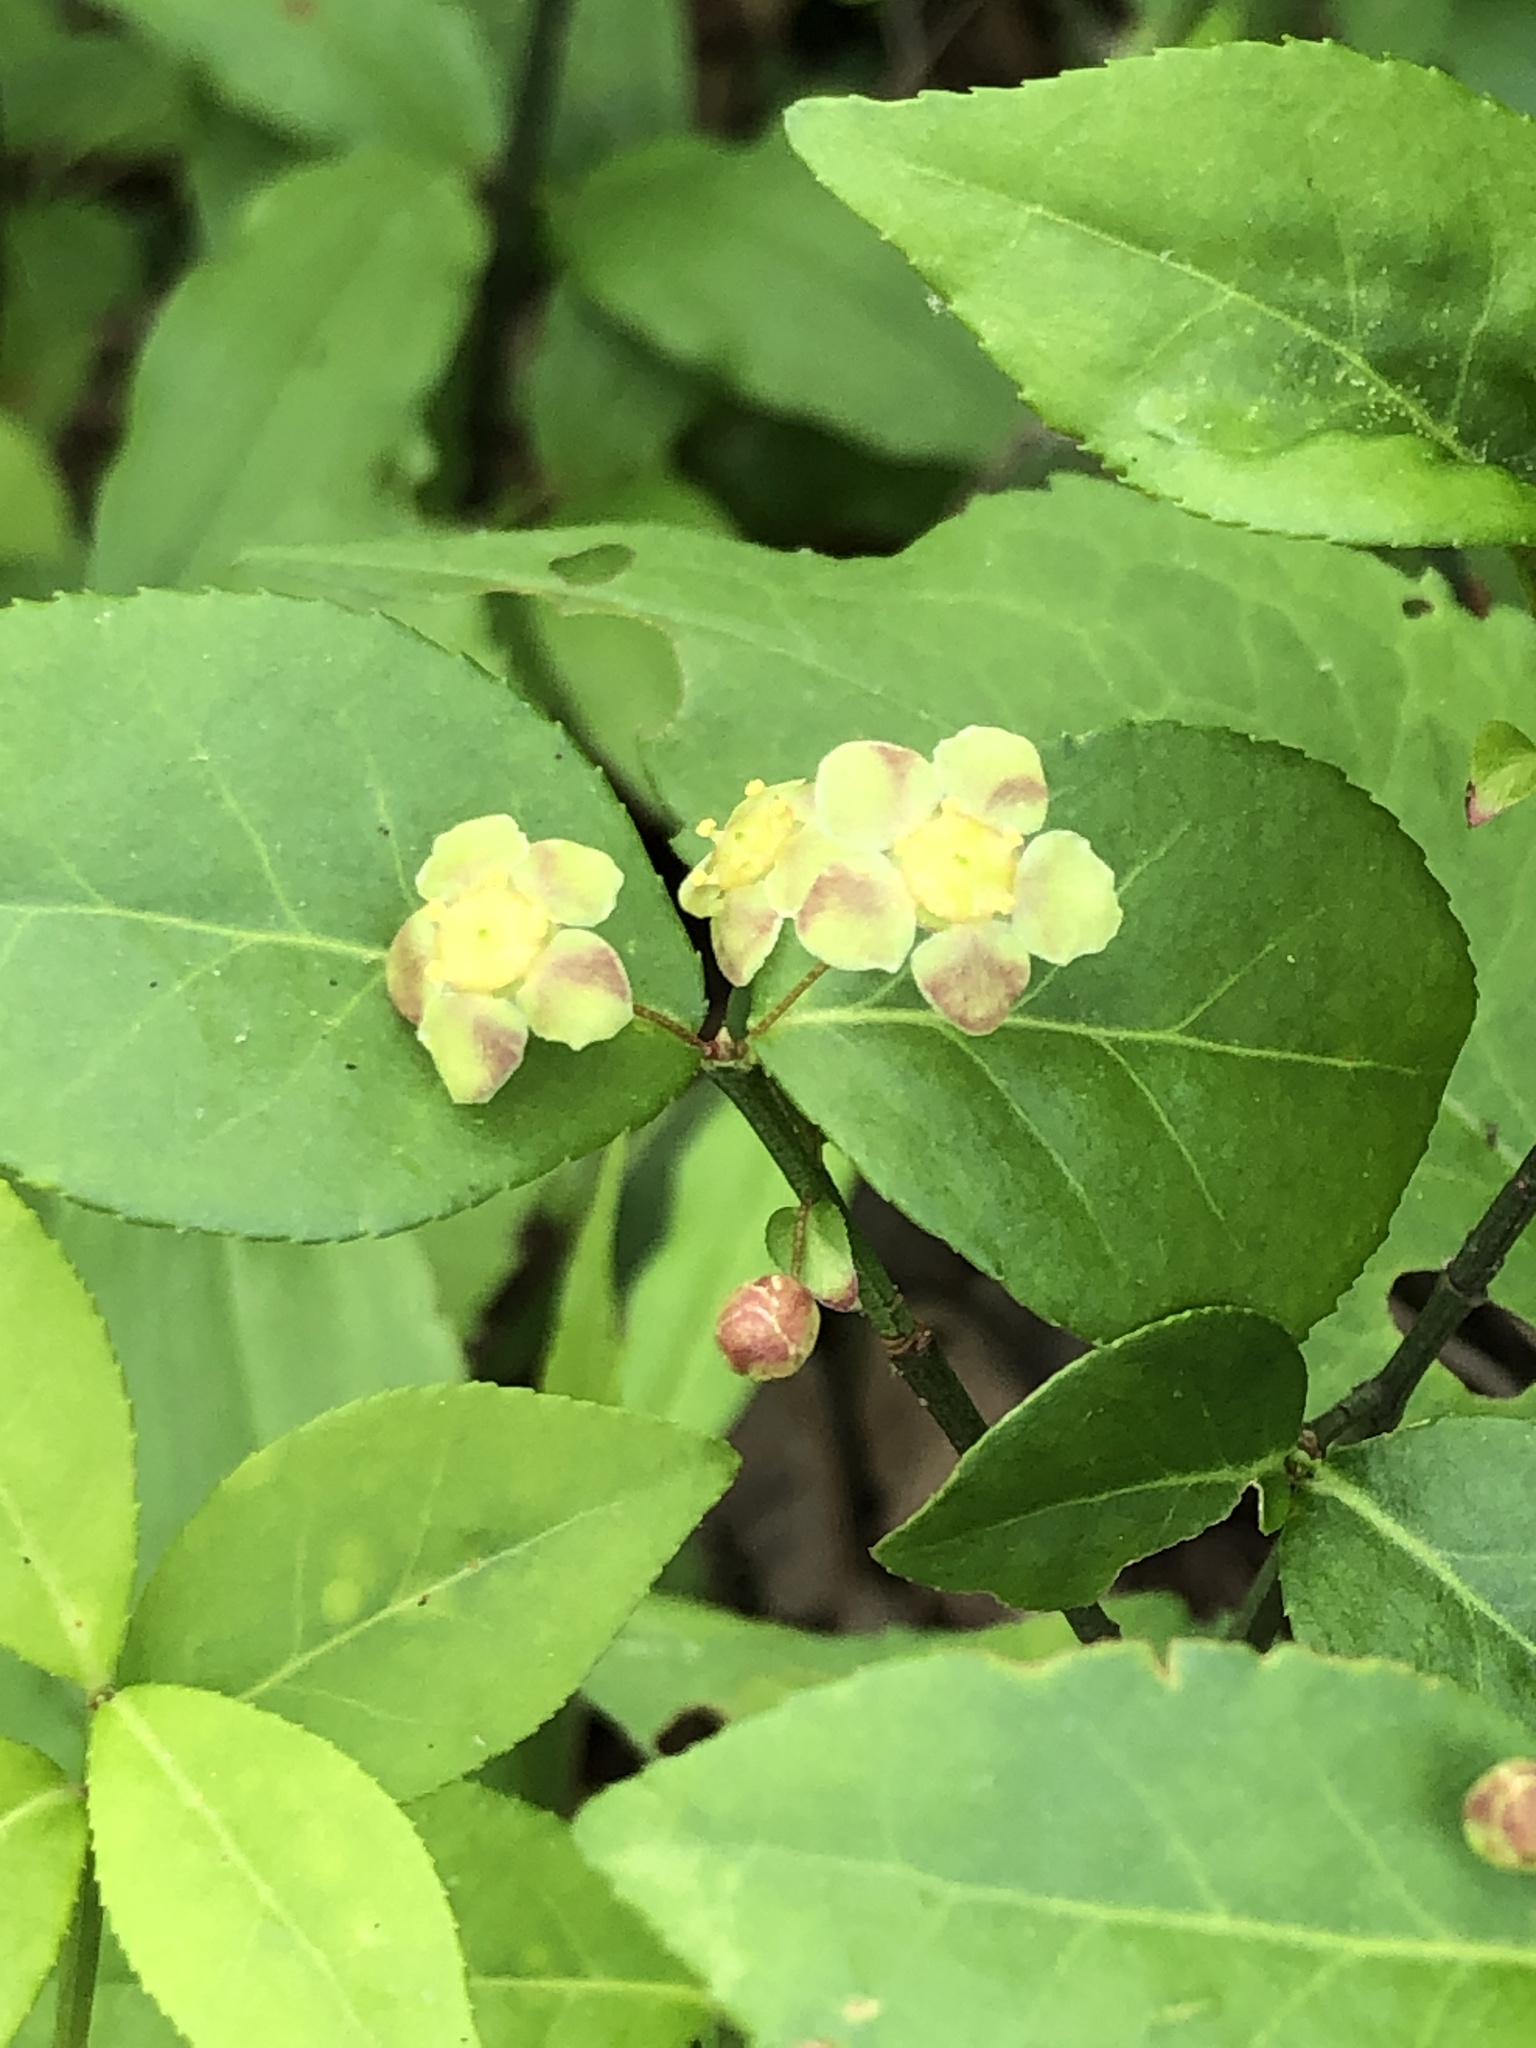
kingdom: Plantae
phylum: Tracheophyta
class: Magnoliopsida
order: Celastrales
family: Celastraceae
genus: Euonymus
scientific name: Euonymus americanus
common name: Bursting-heart
